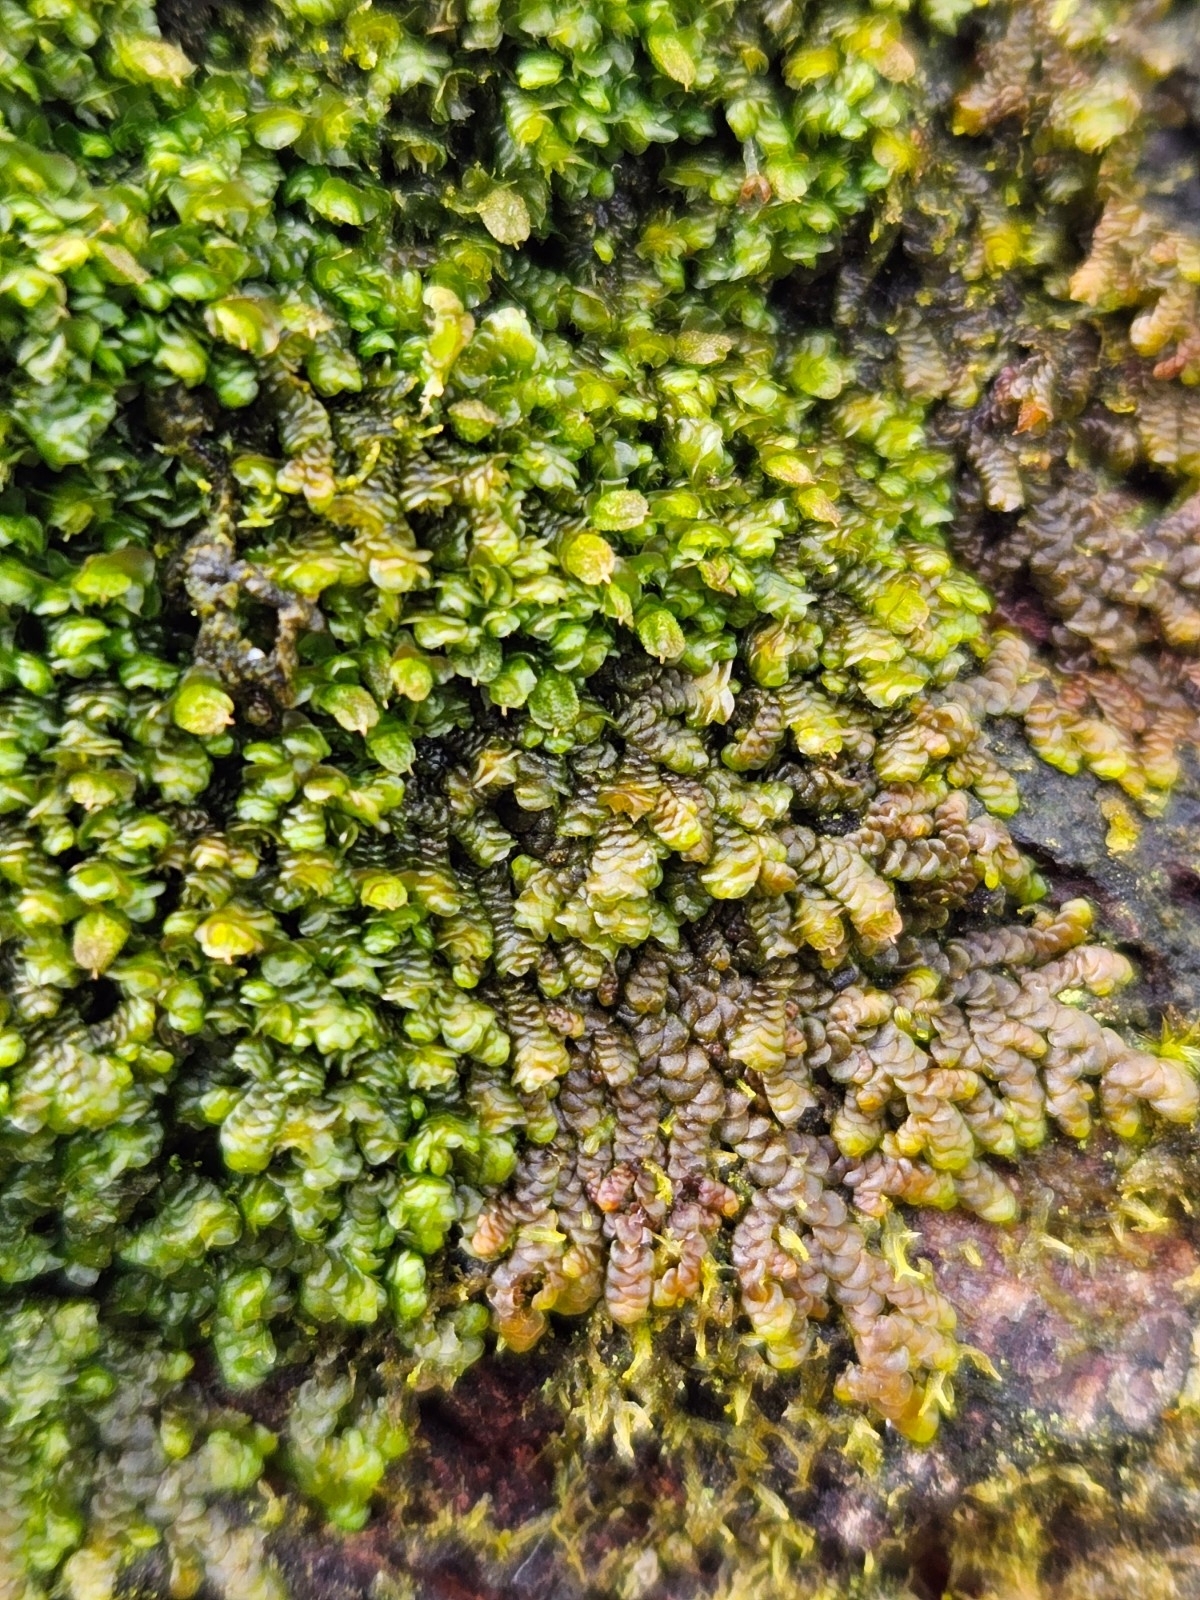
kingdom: Plantae
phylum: Marchantiophyta
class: Jungermanniopsida
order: Porellales
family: Frullaniaceae
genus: Frullania
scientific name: Frullania dilatata
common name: Dilated scalewort
